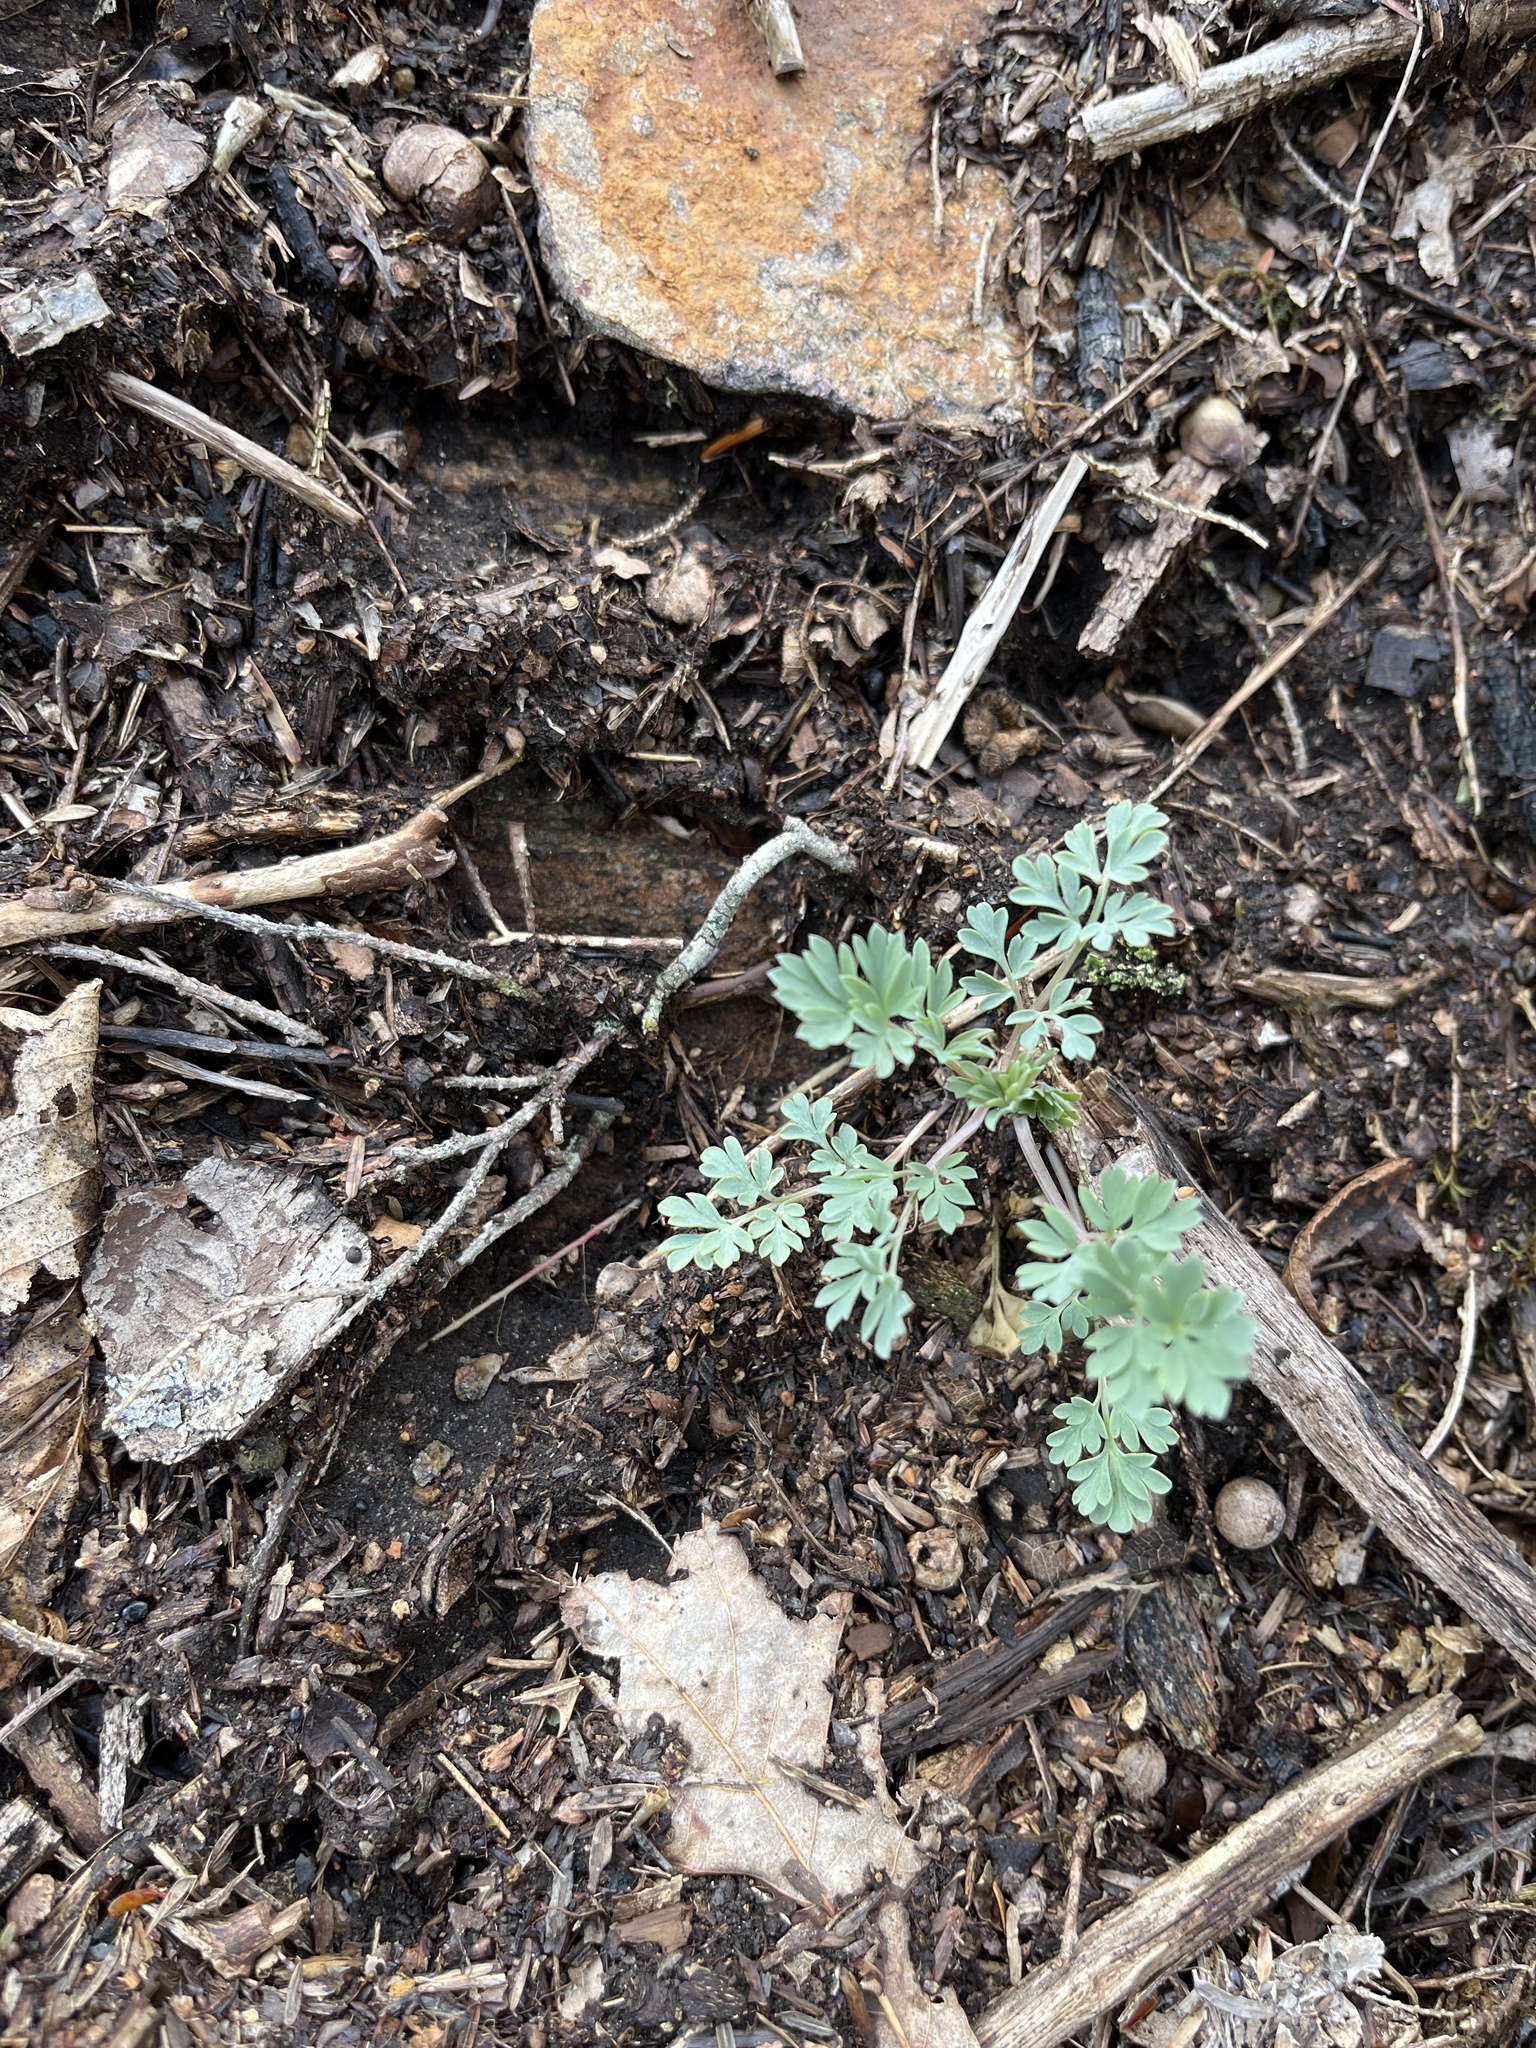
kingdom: Plantae
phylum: Tracheophyta
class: Magnoliopsida
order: Ranunculales
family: Papaveraceae
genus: Capnoides
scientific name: Capnoides sempervirens
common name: Rock harlequin
